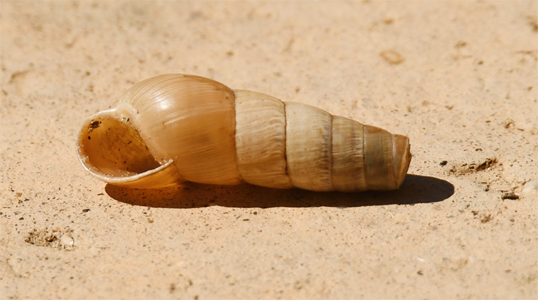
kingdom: Animalia
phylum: Mollusca
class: Gastropoda
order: Stylommatophora
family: Achatinidae
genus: Rumina
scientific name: Rumina decollata
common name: Decollate snail
